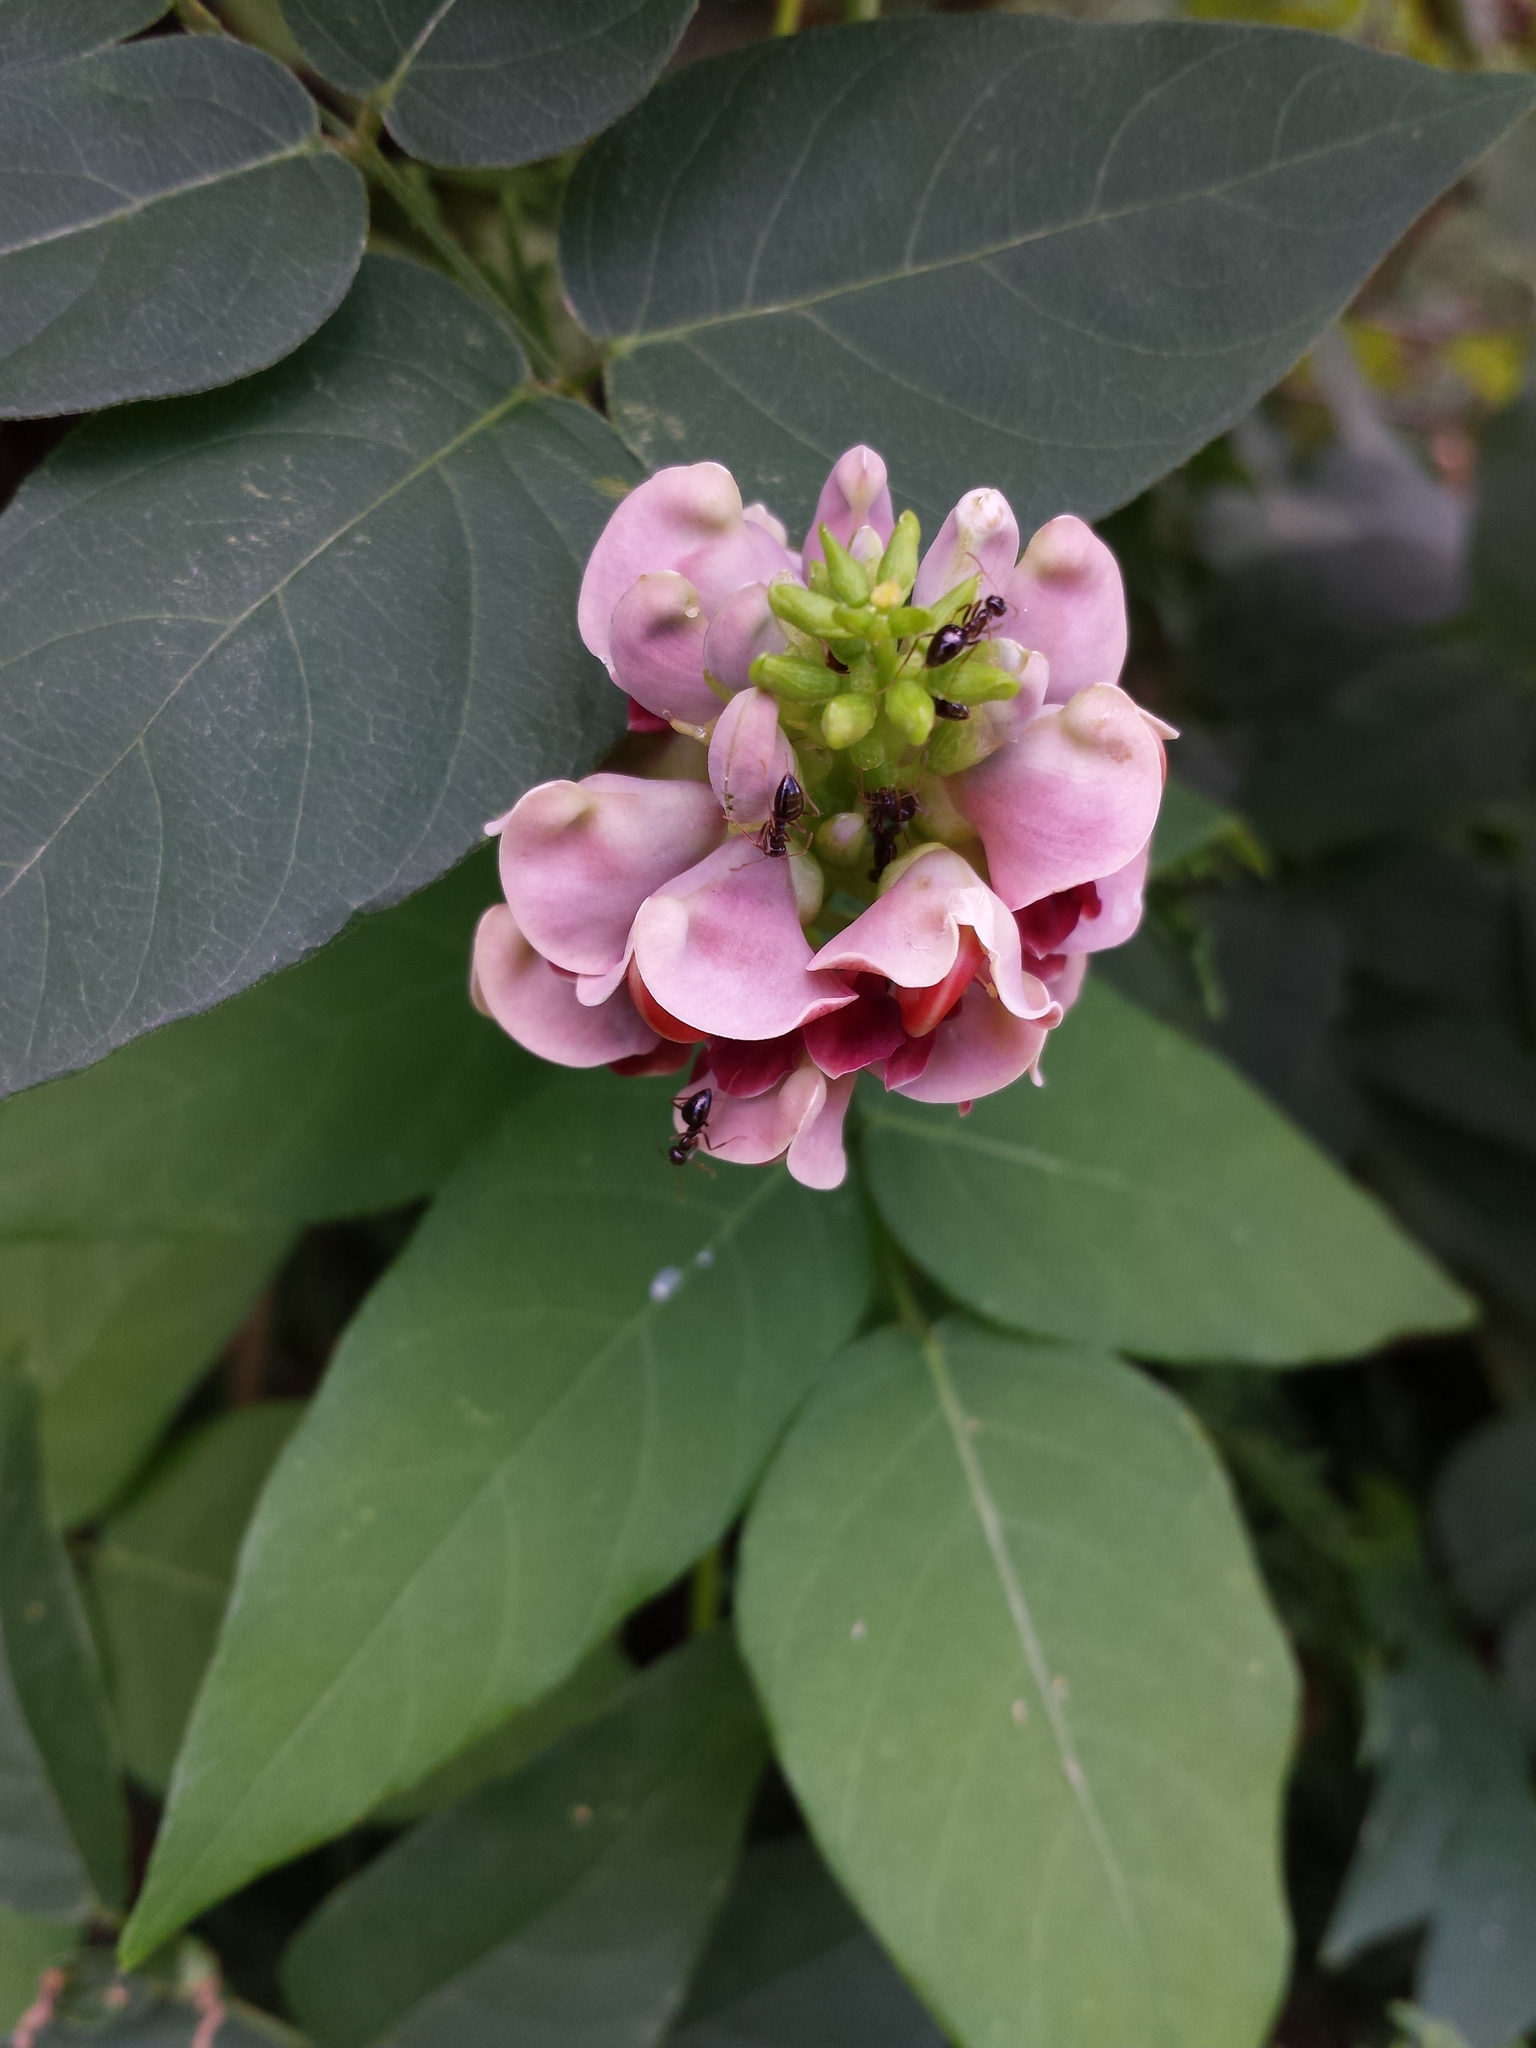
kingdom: Plantae
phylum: Tracheophyta
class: Magnoliopsida
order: Fabales
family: Fabaceae
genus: Apios
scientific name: Apios americana
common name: American potato-bean
